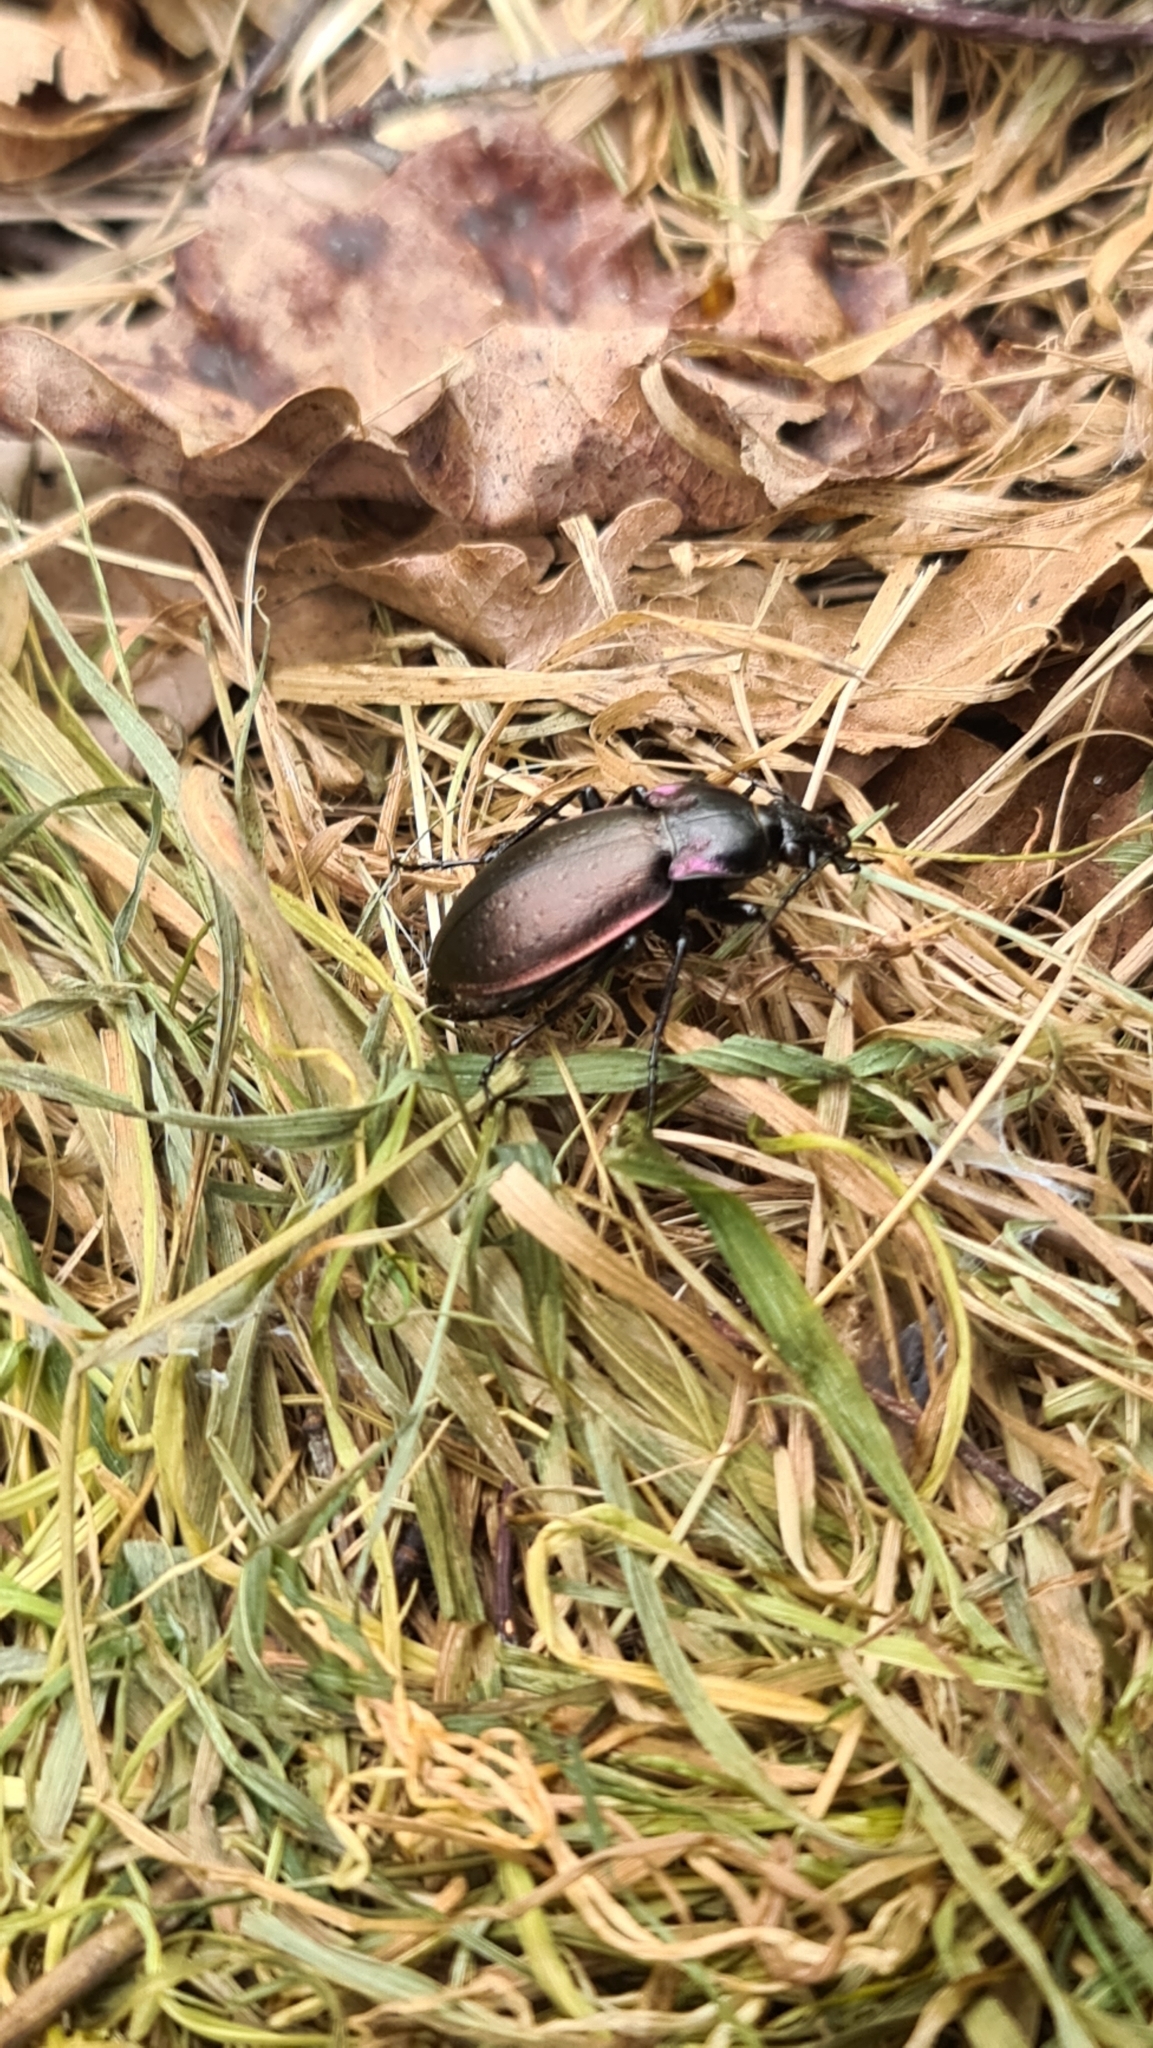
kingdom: Animalia
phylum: Arthropoda
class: Insecta
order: Coleoptera
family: Carabidae
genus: Carabus
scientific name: Carabus nemoralis
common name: European ground beetle
